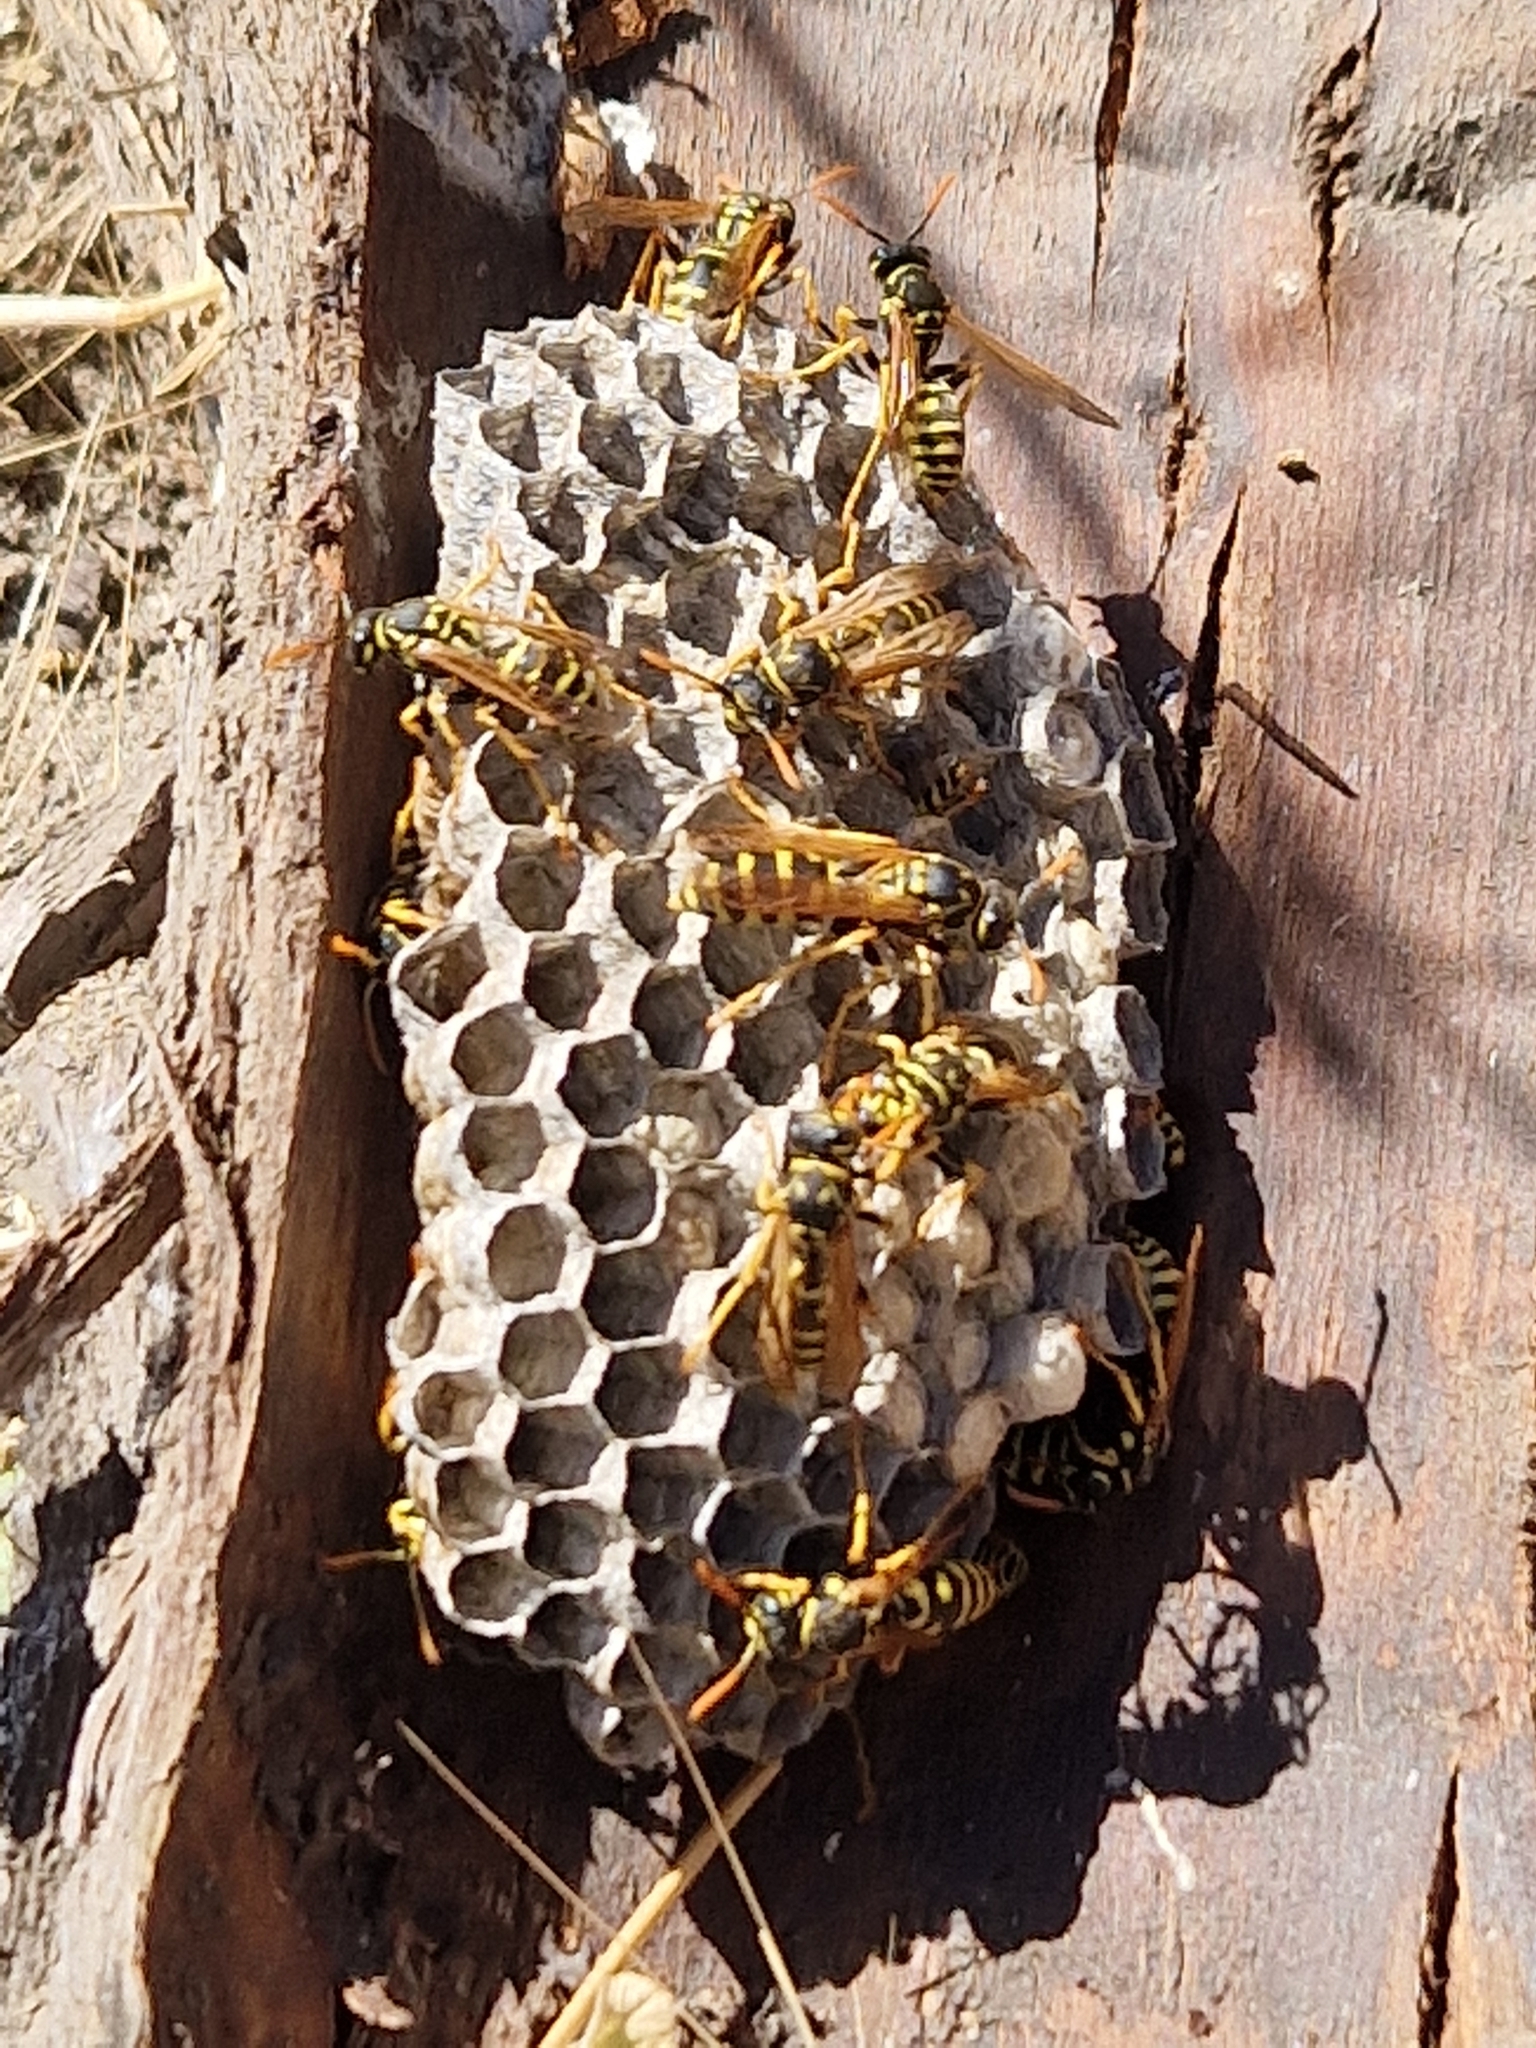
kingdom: Animalia
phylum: Arthropoda
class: Insecta
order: Hymenoptera
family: Eumenidae
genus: Polistes
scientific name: Polistes dominula
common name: Paper wasp
